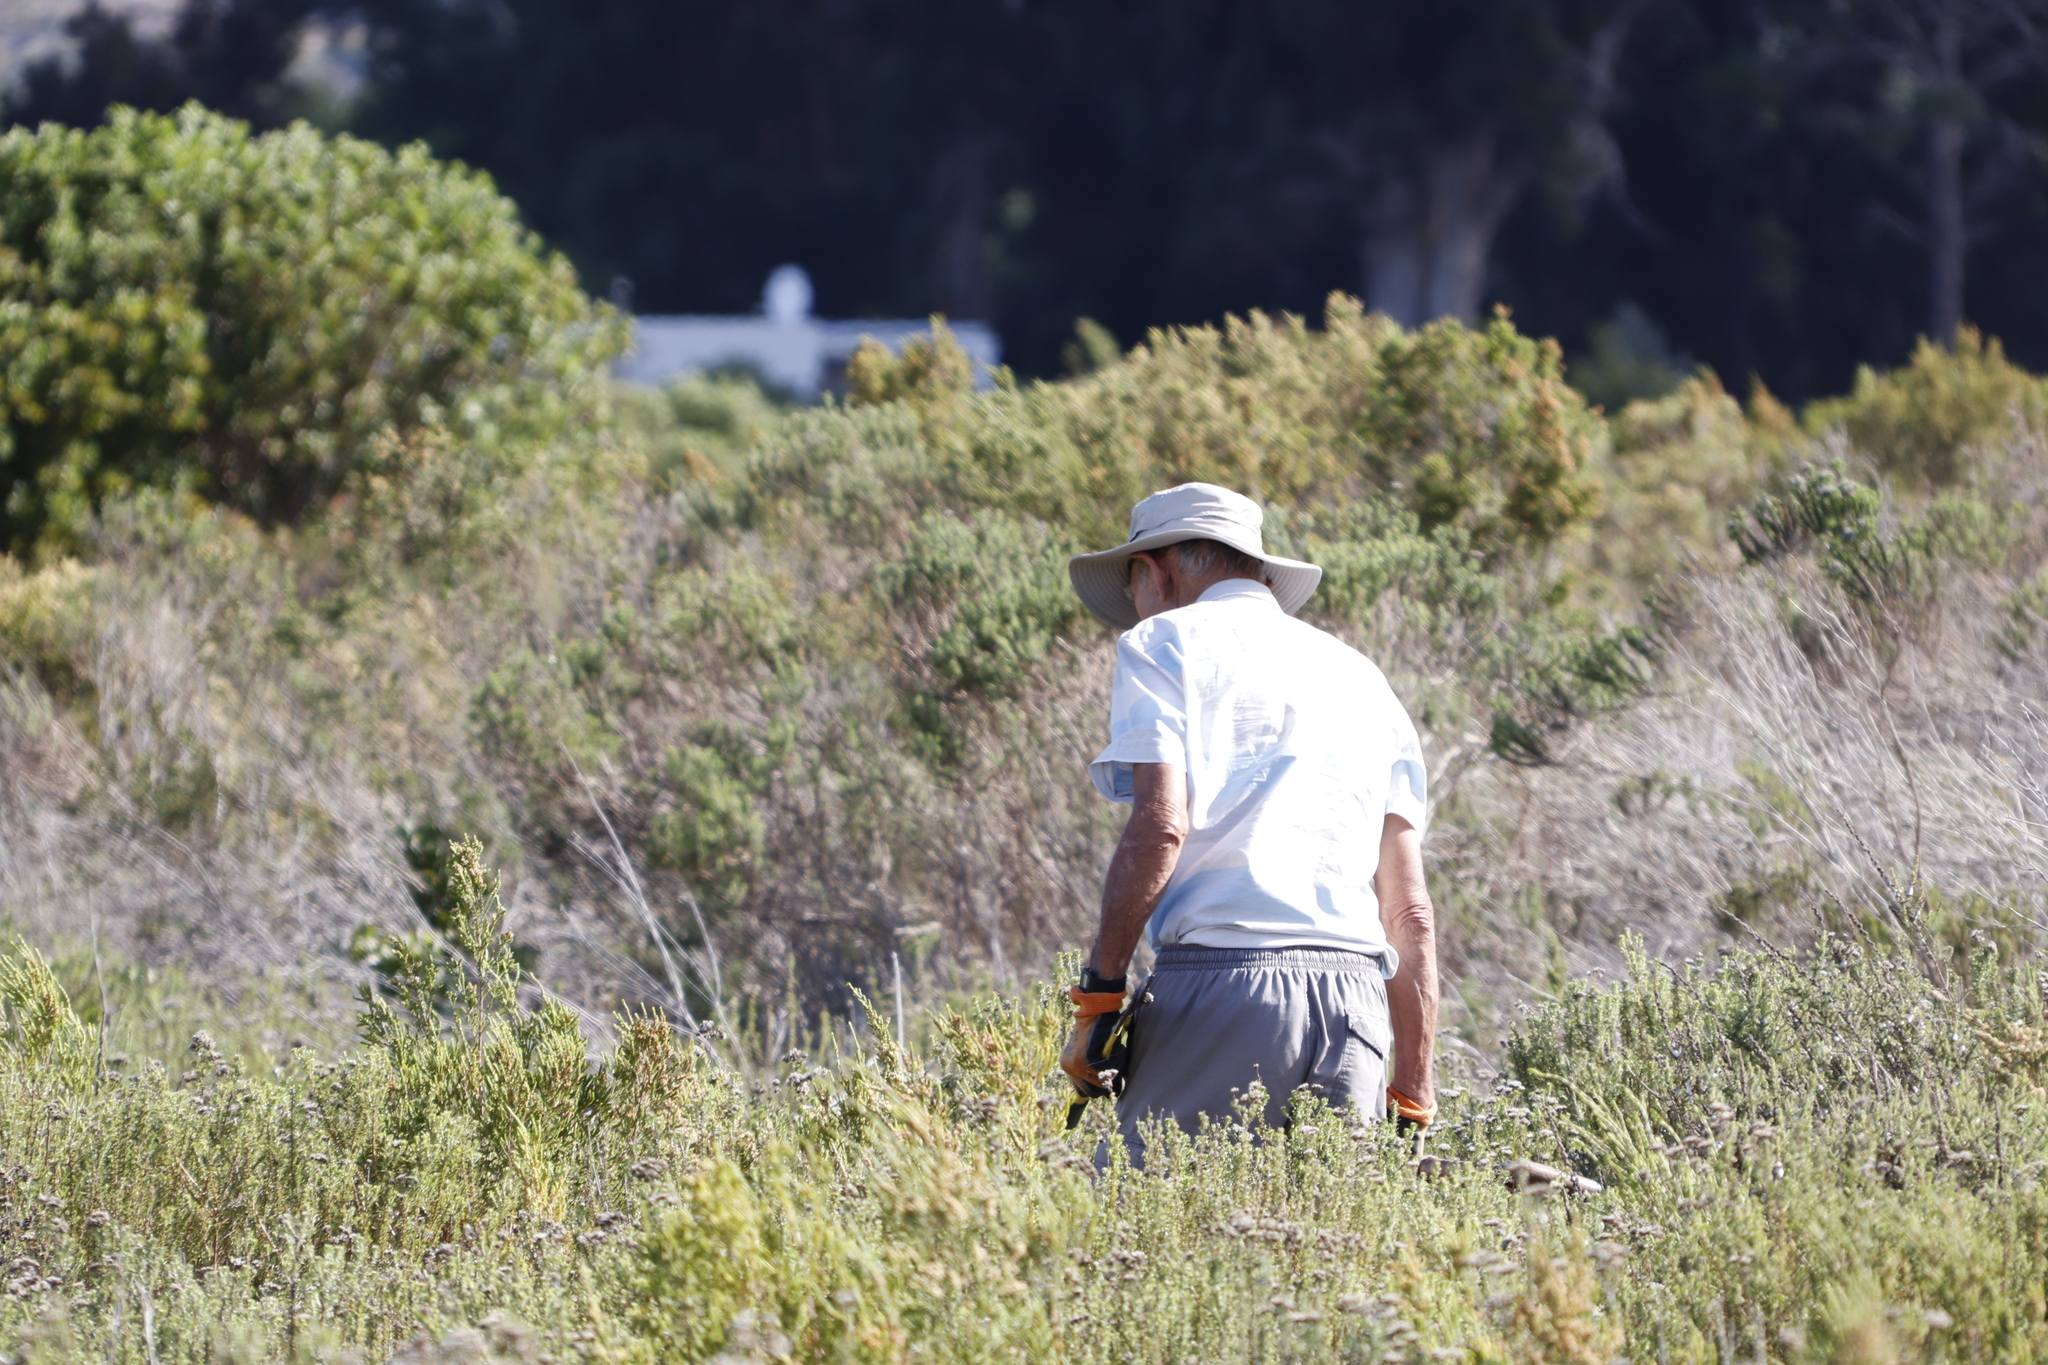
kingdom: Plantae
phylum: Tracheophyta
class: Magnoliopsida
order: Asterales
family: Asteraceae
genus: Metalasia
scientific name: Metalasia densa
